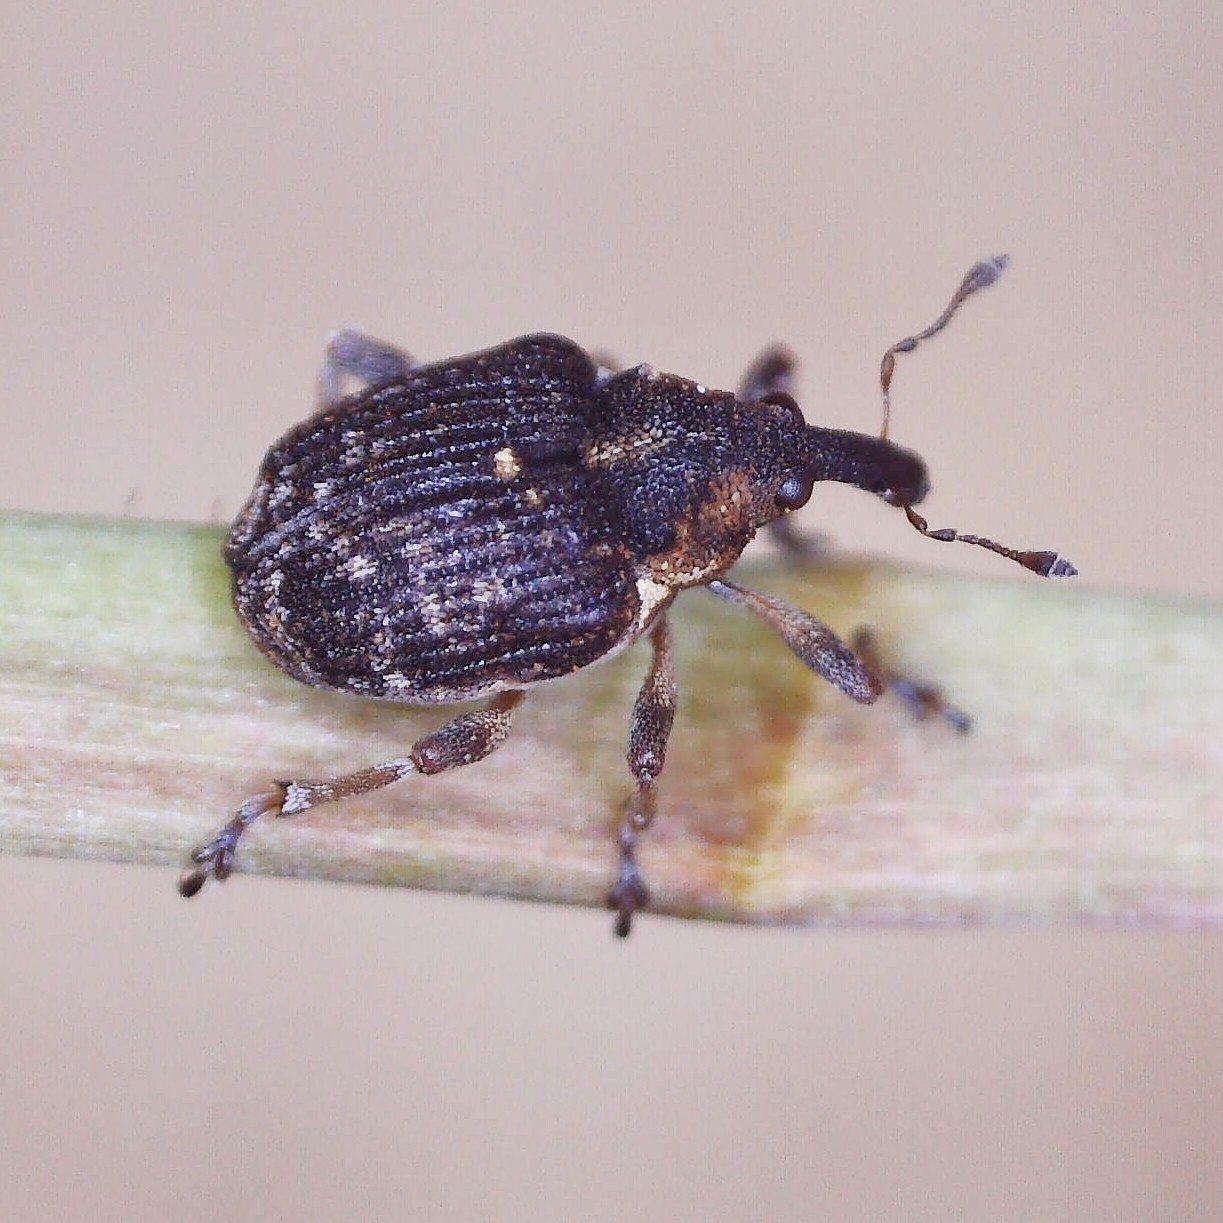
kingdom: Animalia
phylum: Arthropoda
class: Insecta
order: Coleoptera
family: Curculionidae
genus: Phytobius
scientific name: Phytobius waltoni
